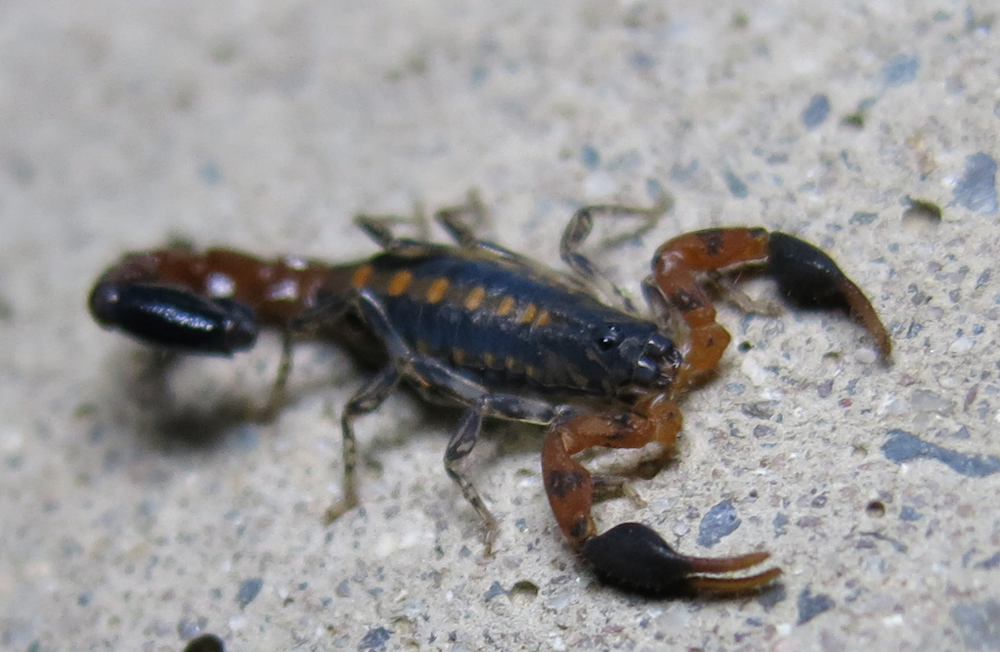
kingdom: Animalia
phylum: Arthropoda
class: Arachnida
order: Scorpiones
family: Buthidae
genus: Uroplectes
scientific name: Uroplectes formosus
